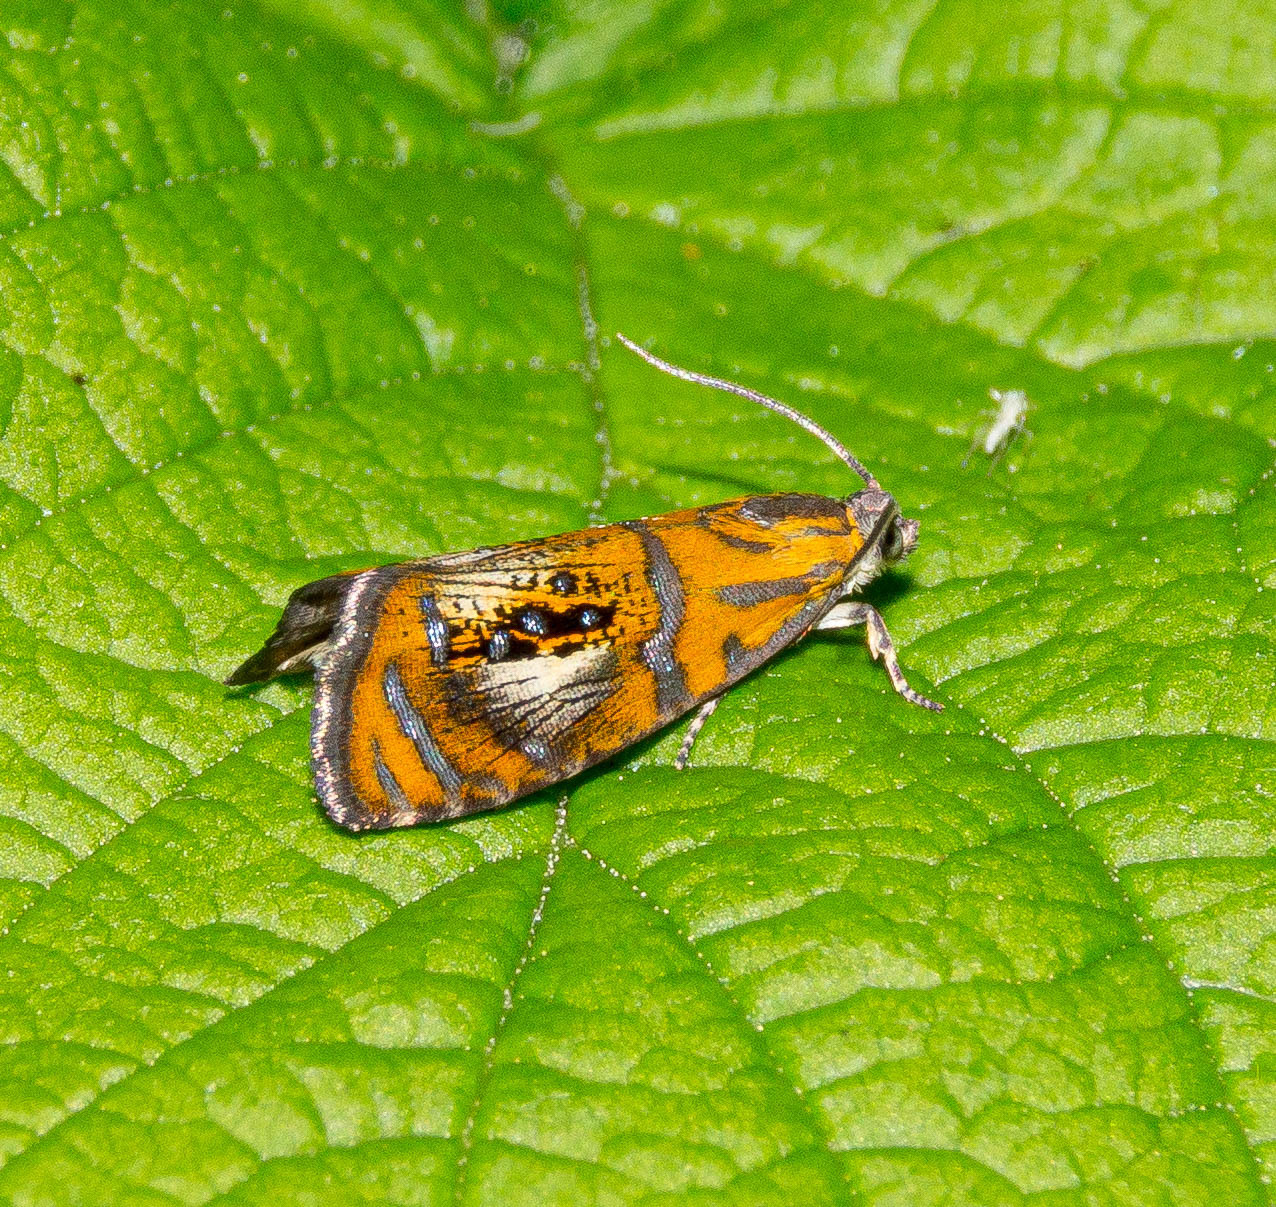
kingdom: Animalia
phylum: Arthropoda
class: Insecta
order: Lepidoptera
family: Tortricidae
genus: Olethreutes
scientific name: Olethreutes arcuella
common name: Arched marble
